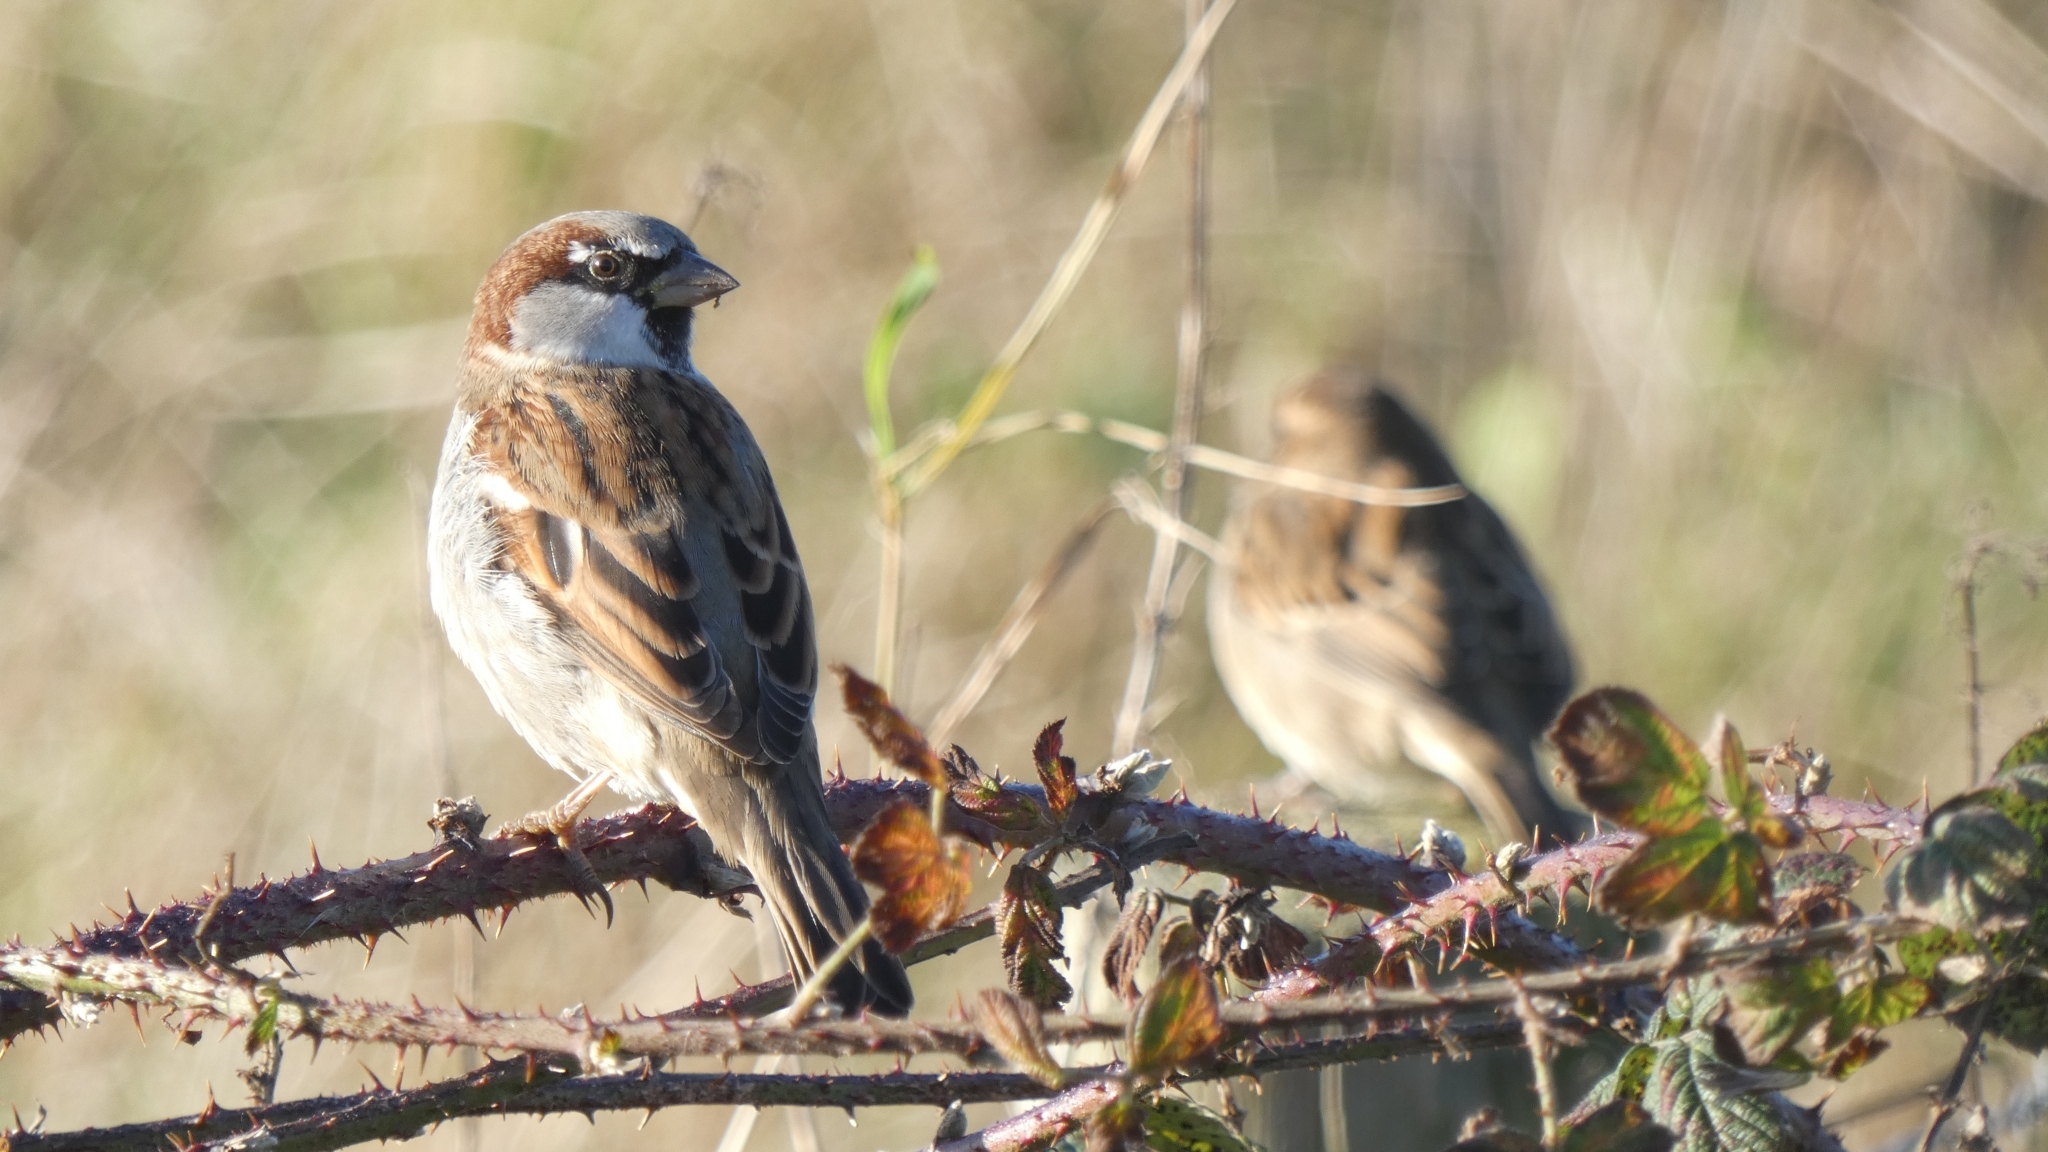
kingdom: Animalia
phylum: Chordata
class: Aves
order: Passeriformes
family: Passeridae
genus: Passer
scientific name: Passer domesticus
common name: House sparrow
